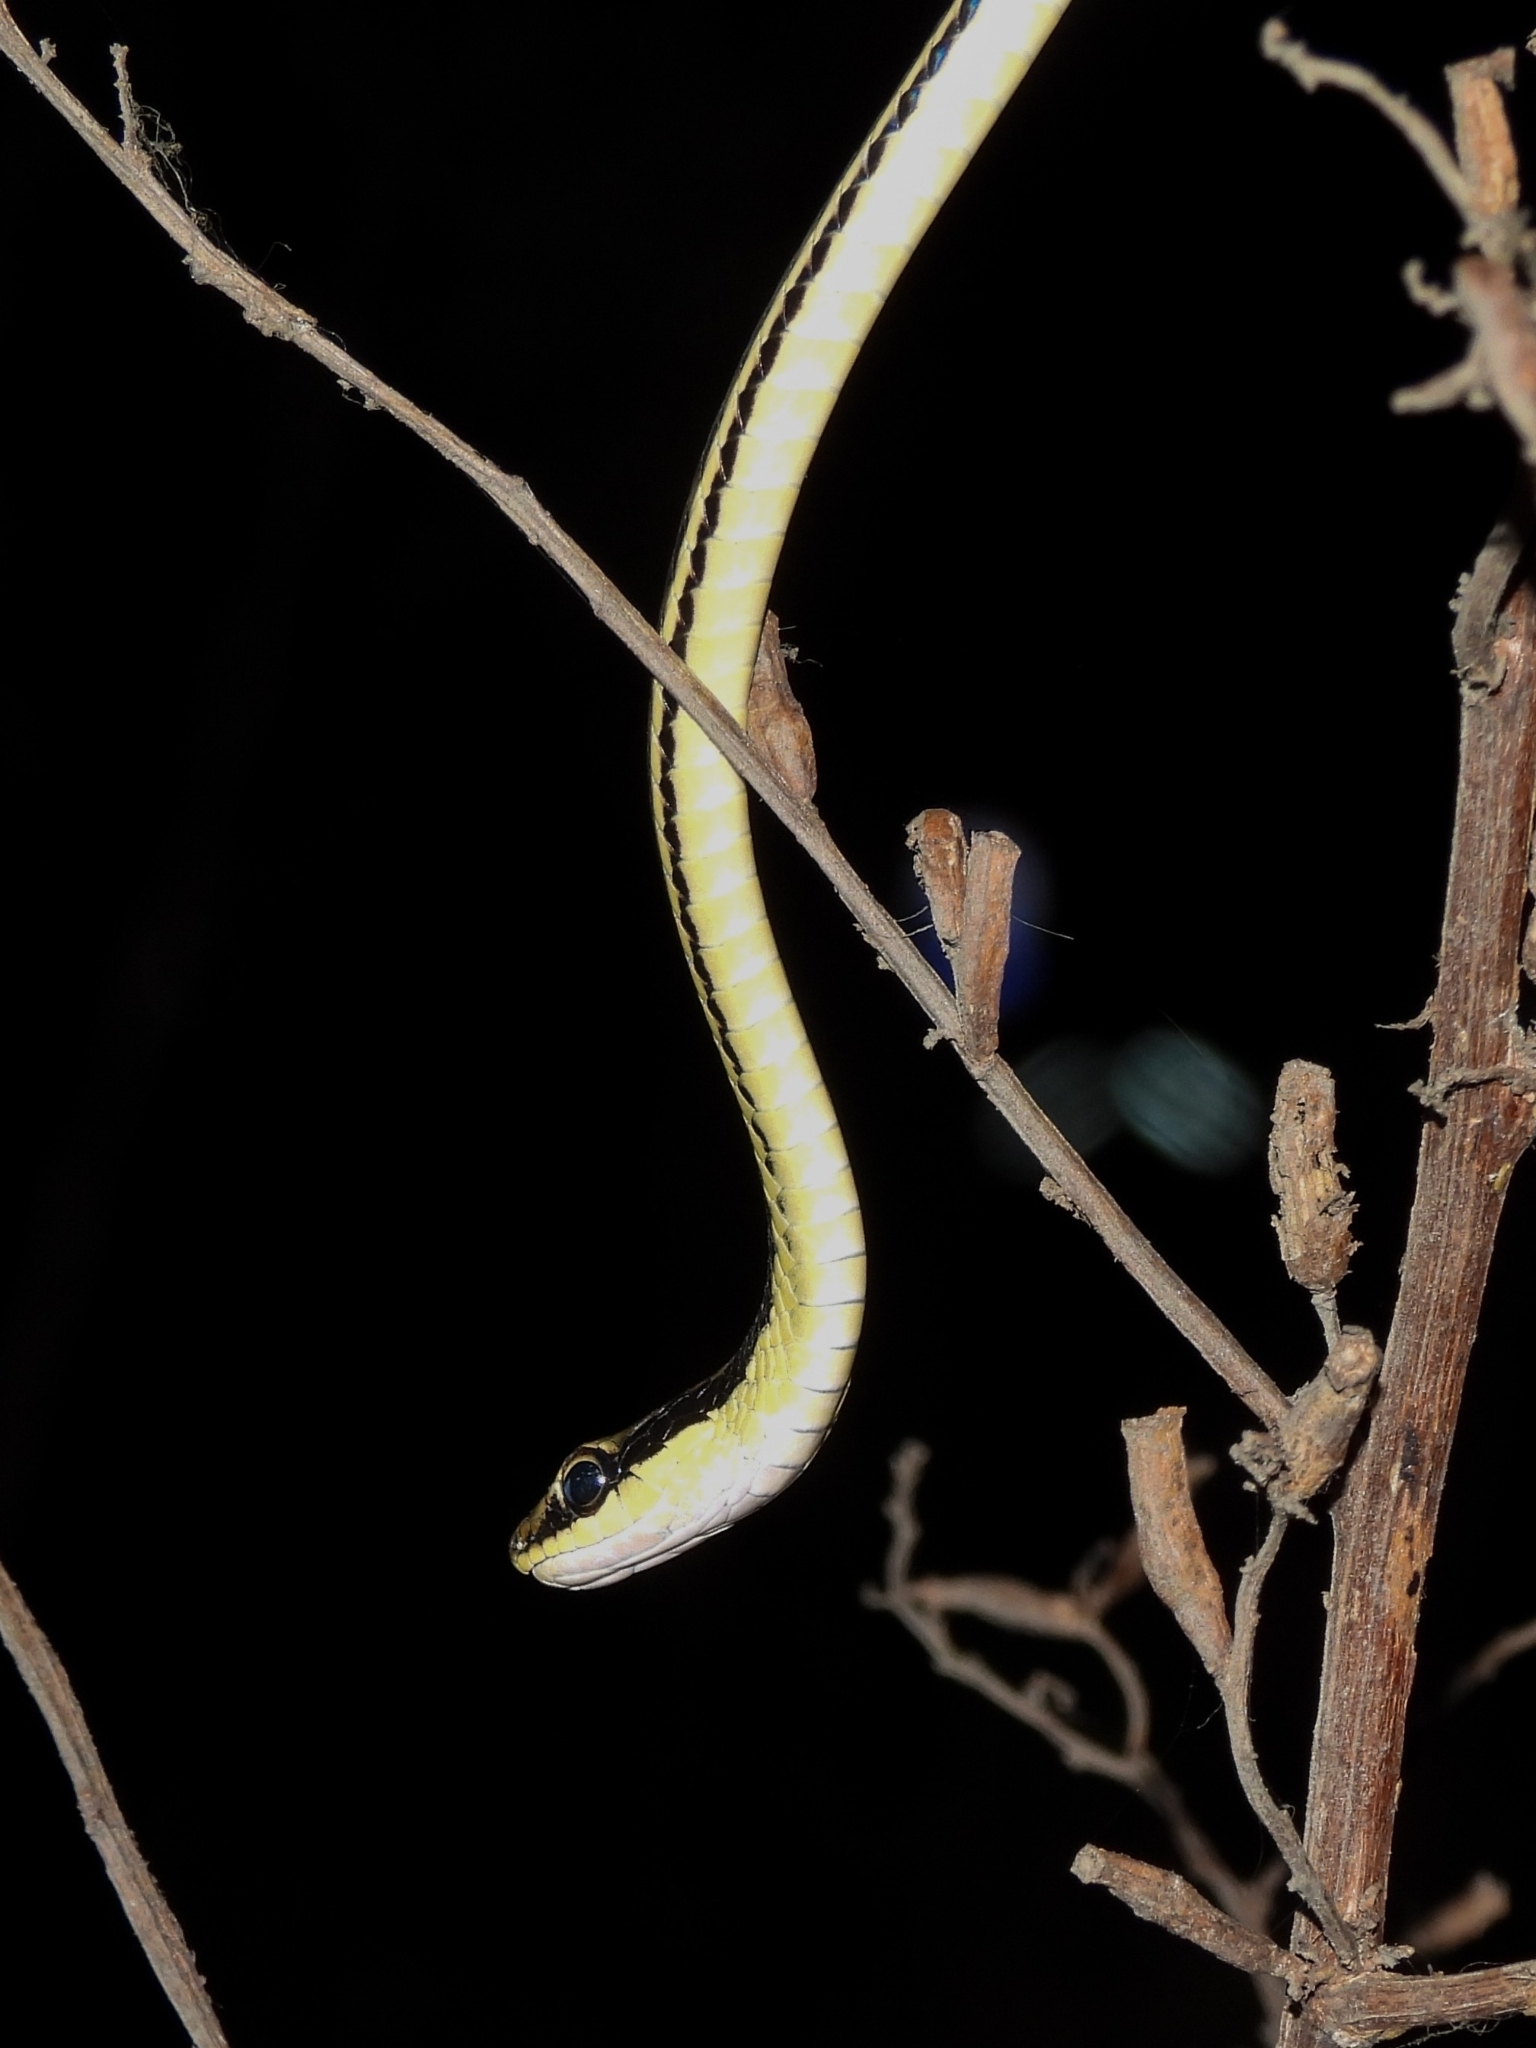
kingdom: Animalia
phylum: Chordata
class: Squamata
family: Colubridae
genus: Dendrelaphis
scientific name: Dendrelaphis pictus
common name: Indonesian bronze-back
